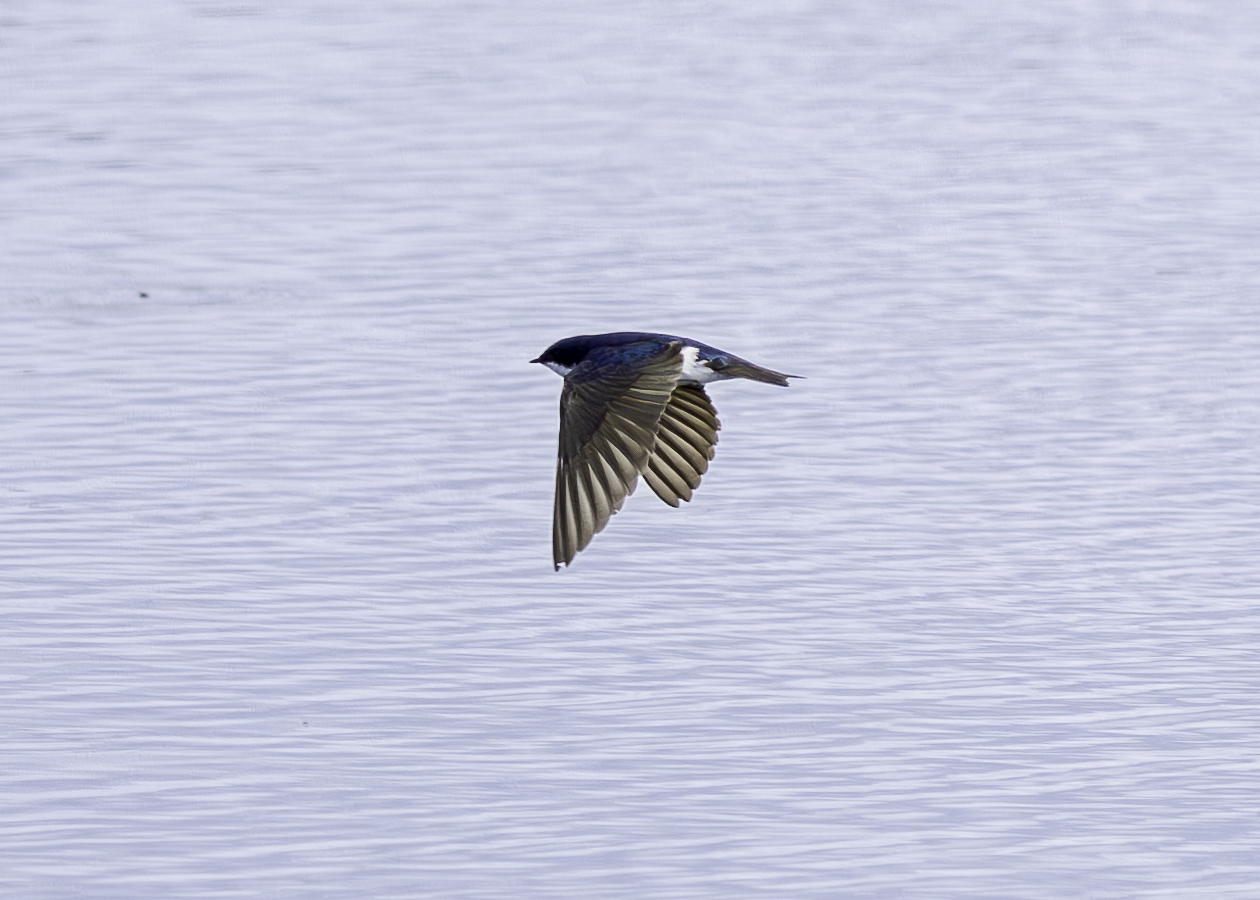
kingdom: Animalia
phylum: Chordata
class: Aves
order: Passeriformes
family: Hirundinidae
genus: Tachycineta
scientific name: Tachycineta bicolor
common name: Tree swallow
